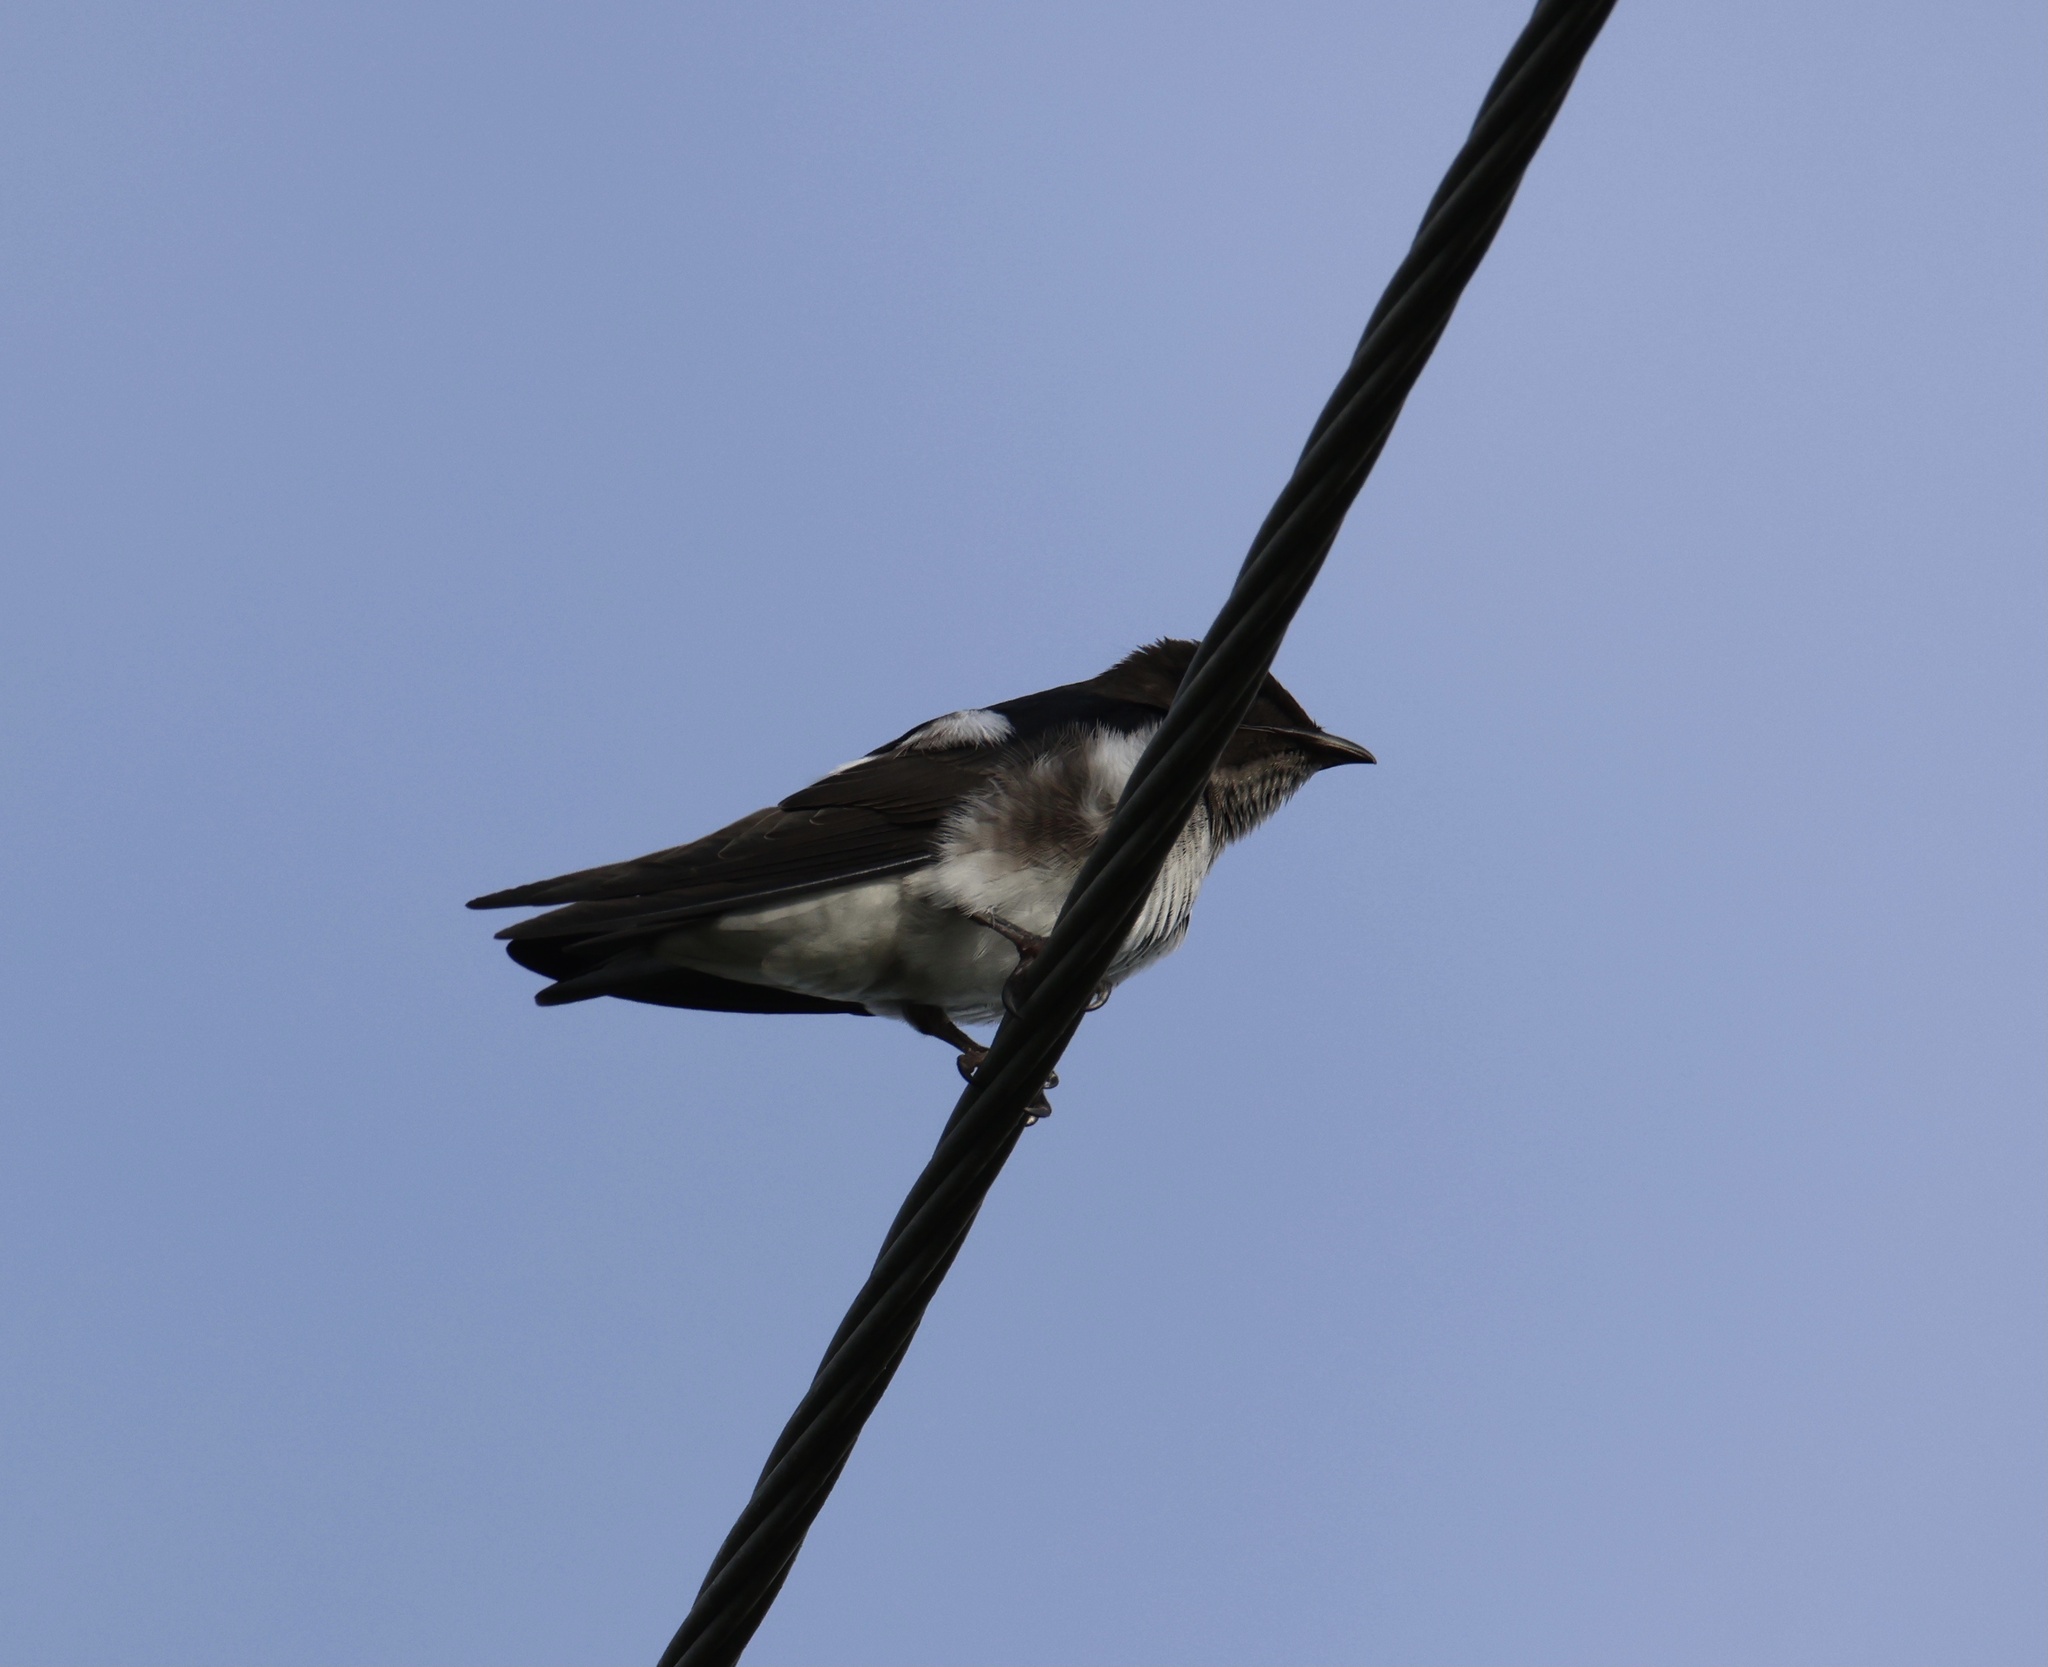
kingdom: Animalia
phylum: Chordata
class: Aves
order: Passeriformes
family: Hirundinidae
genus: Progne
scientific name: Progne chalybea
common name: Grey-breasted martin
